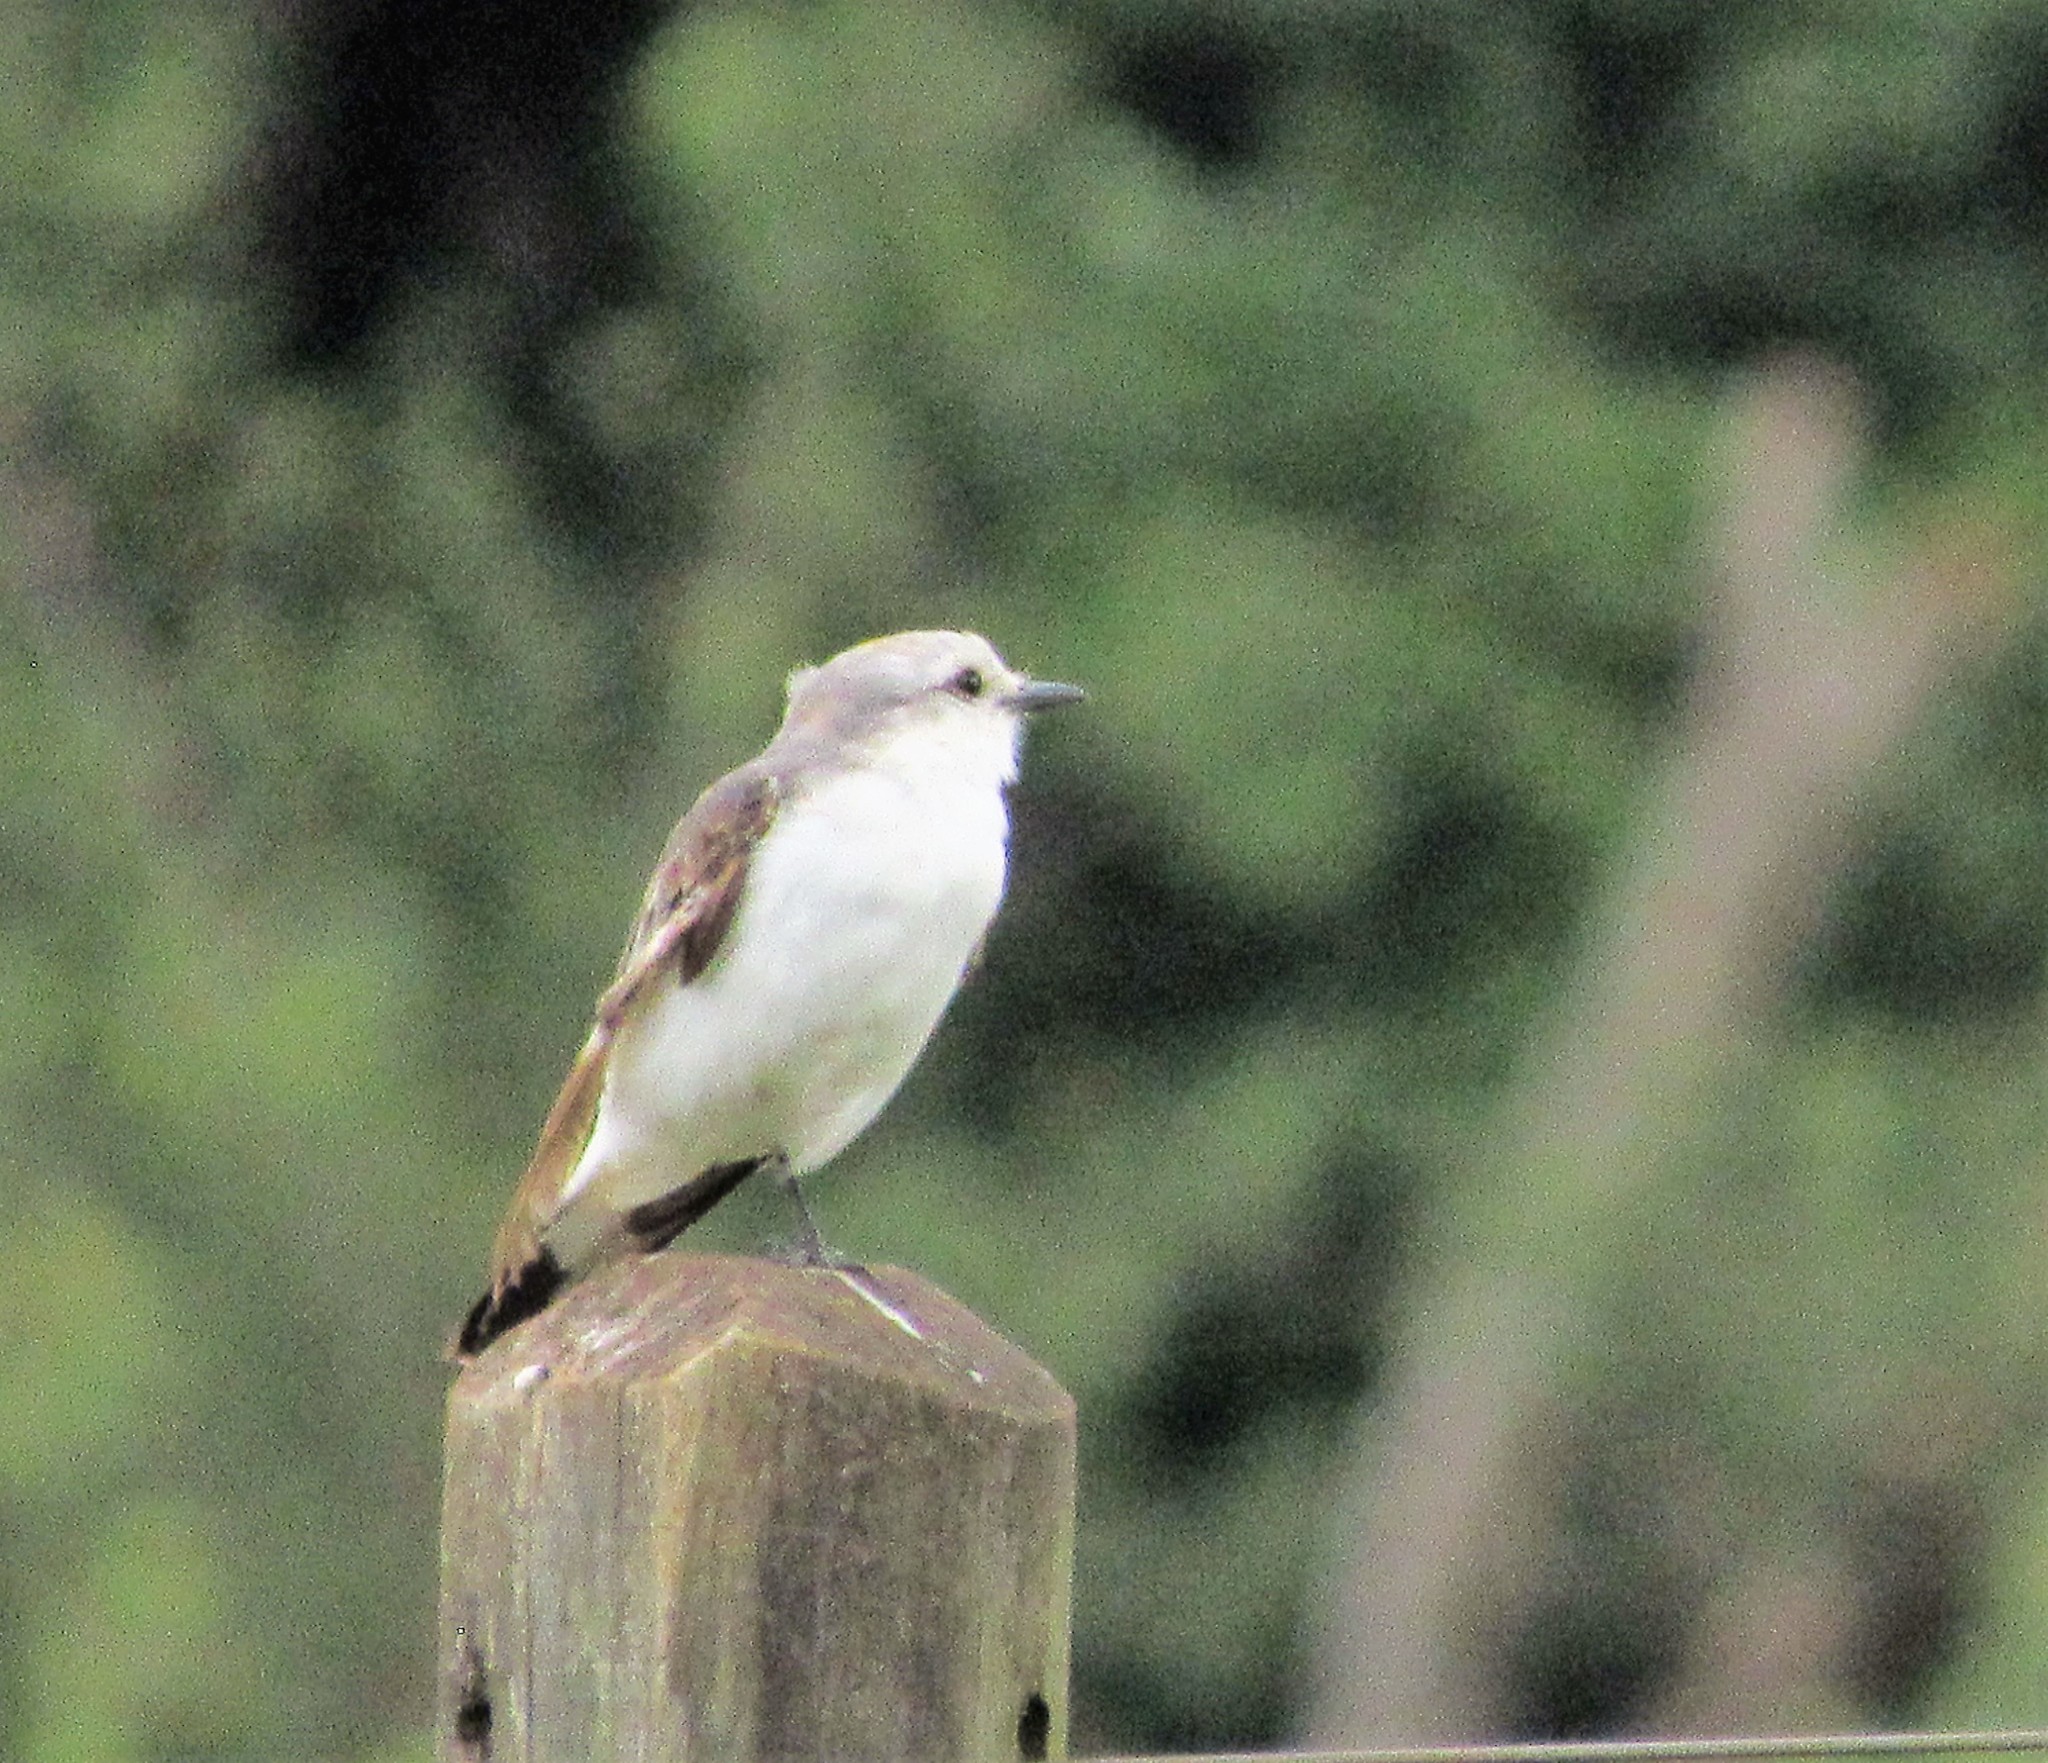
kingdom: Animalia
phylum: Chordata
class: Aves
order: Passeriformes
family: Tyrannidae
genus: Xolmis
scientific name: Xolmis velatus
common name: White-rumped monjita
